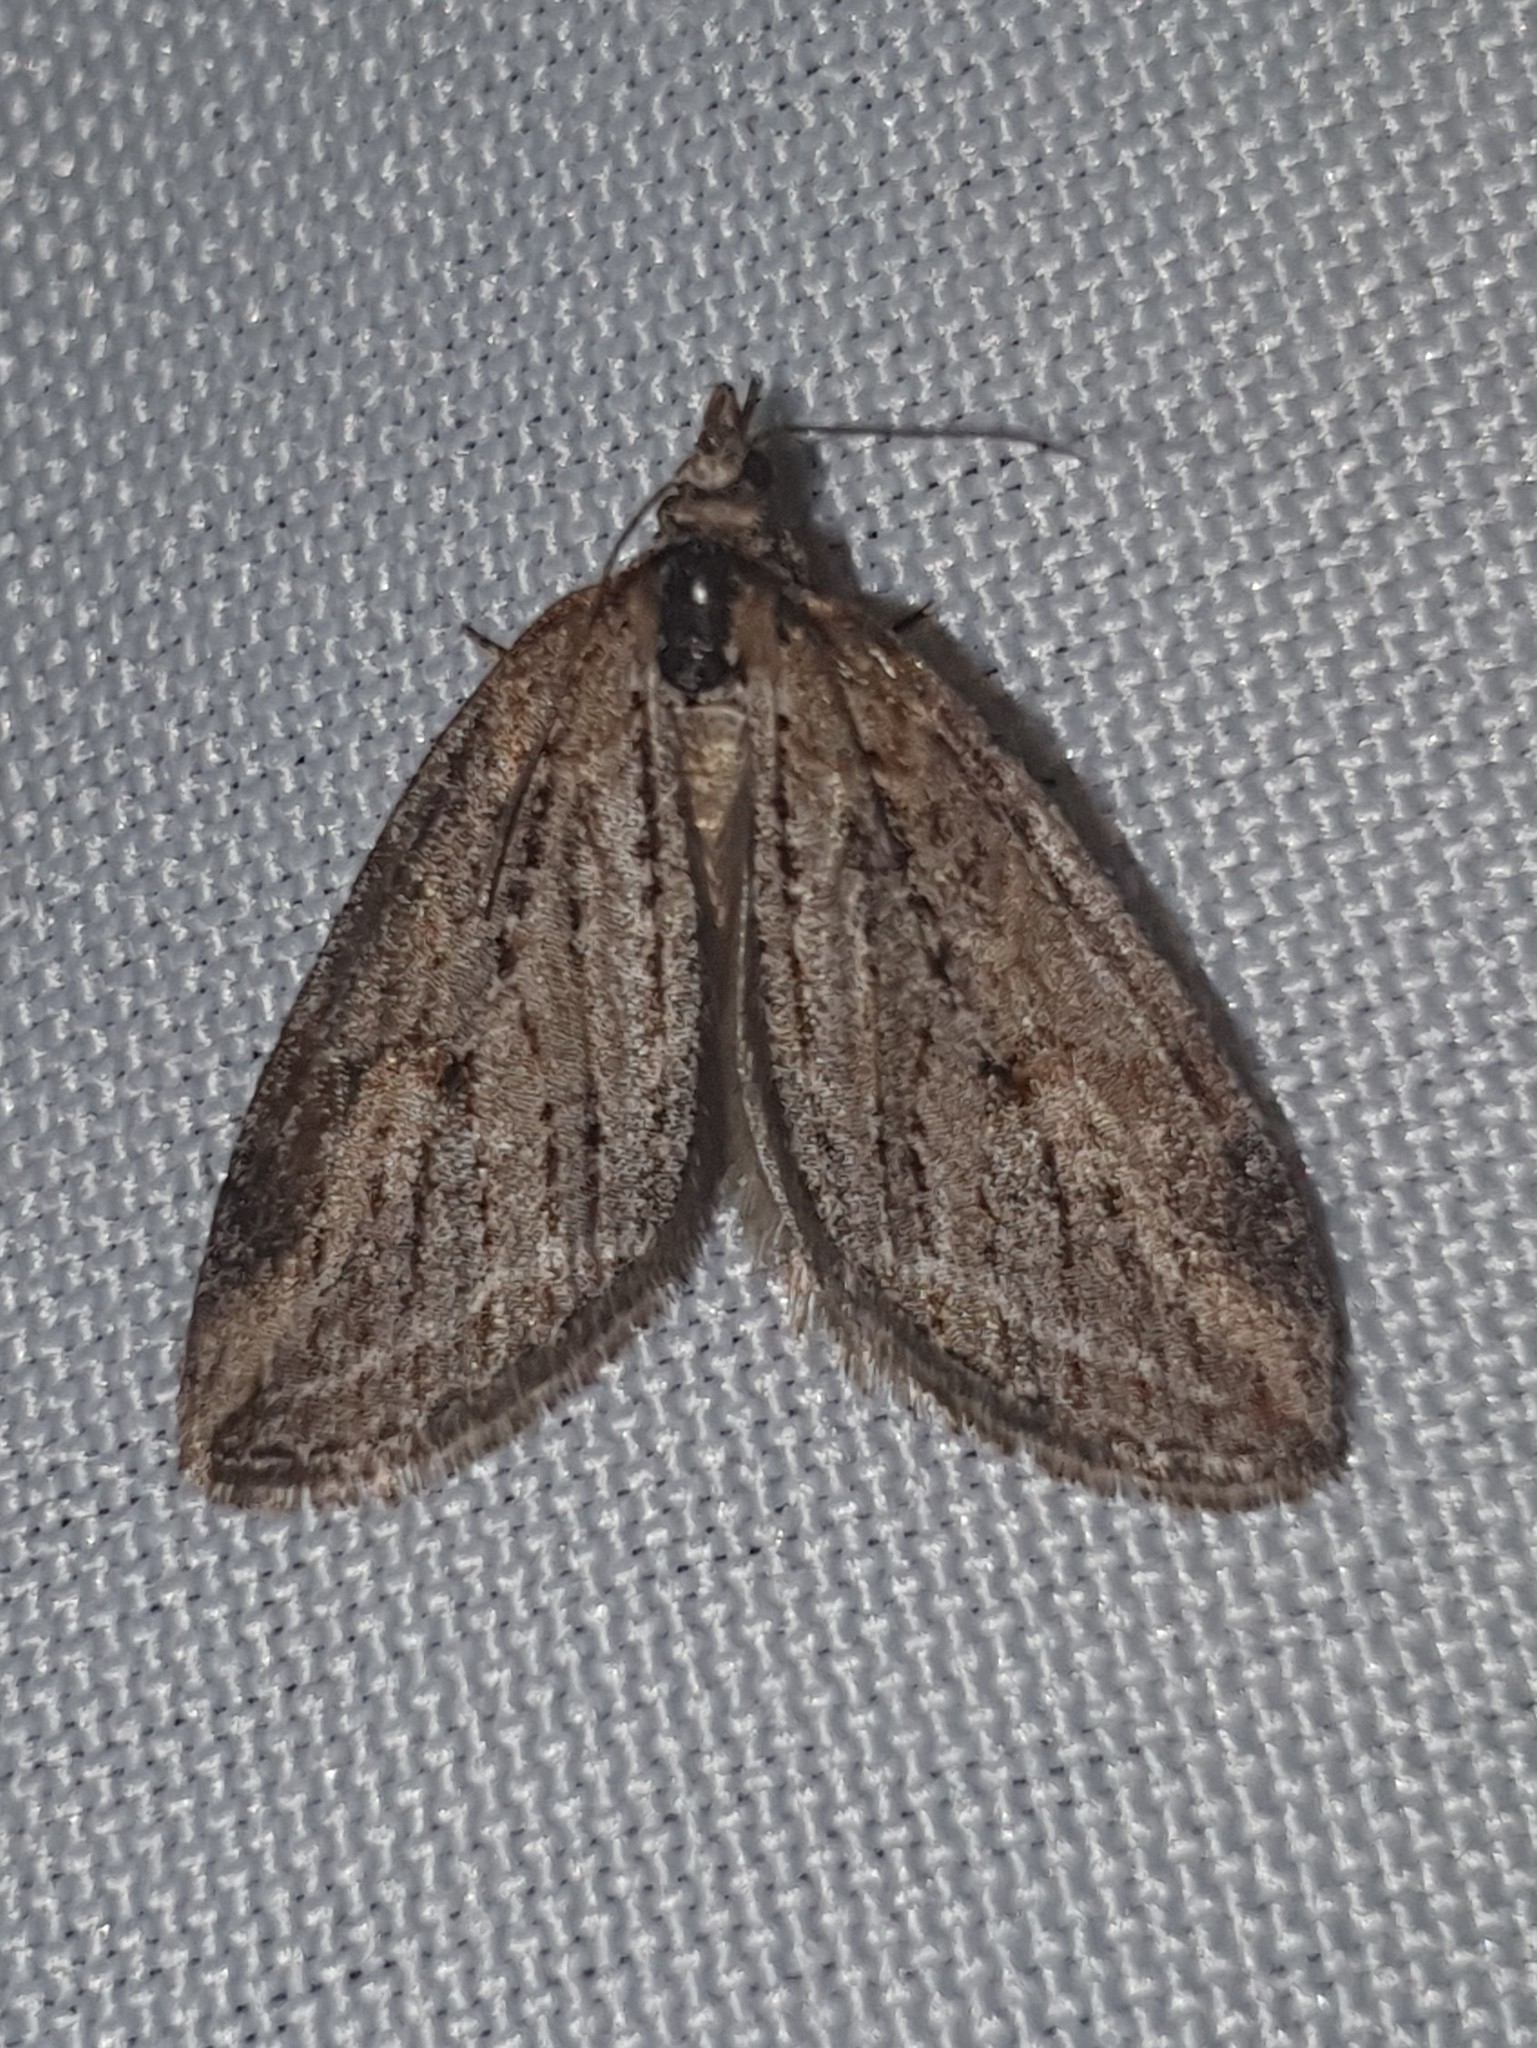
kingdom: Animalia
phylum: Arthropoda
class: Insecta
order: Lepidoptera
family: Geometridae
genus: Chesias
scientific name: Chesias isabella
